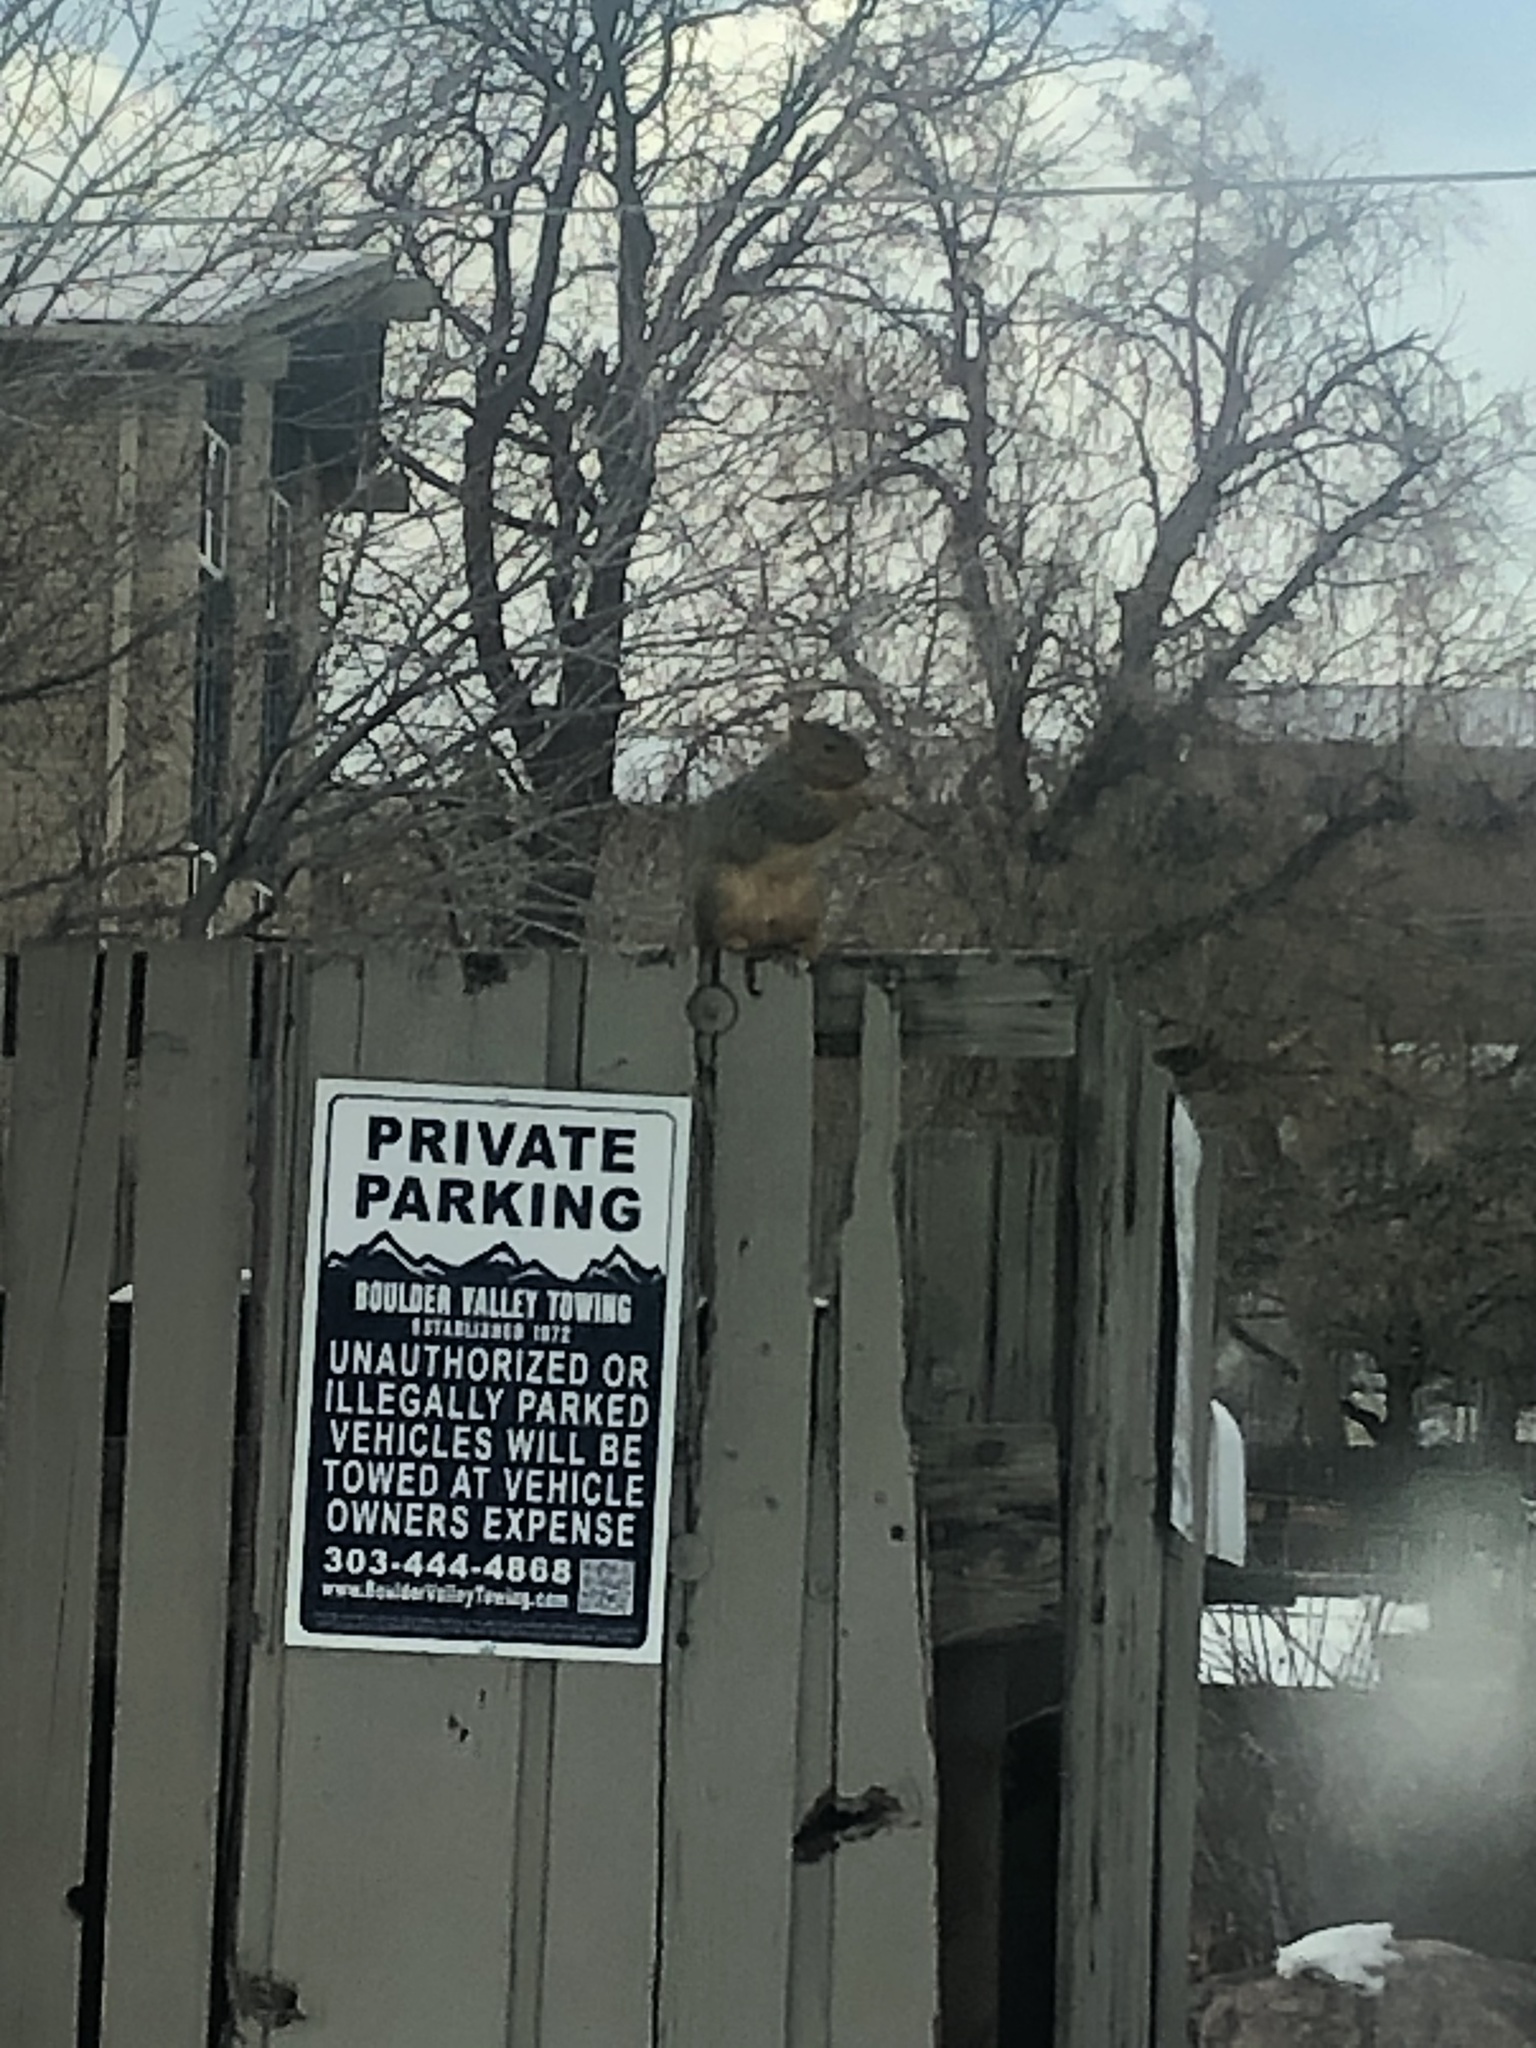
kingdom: Animalia
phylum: Chordata
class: Mammalia
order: Rodentia
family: Sciuridae
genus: Sciurus
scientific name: Sciurus niger
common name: Fox squirrel
